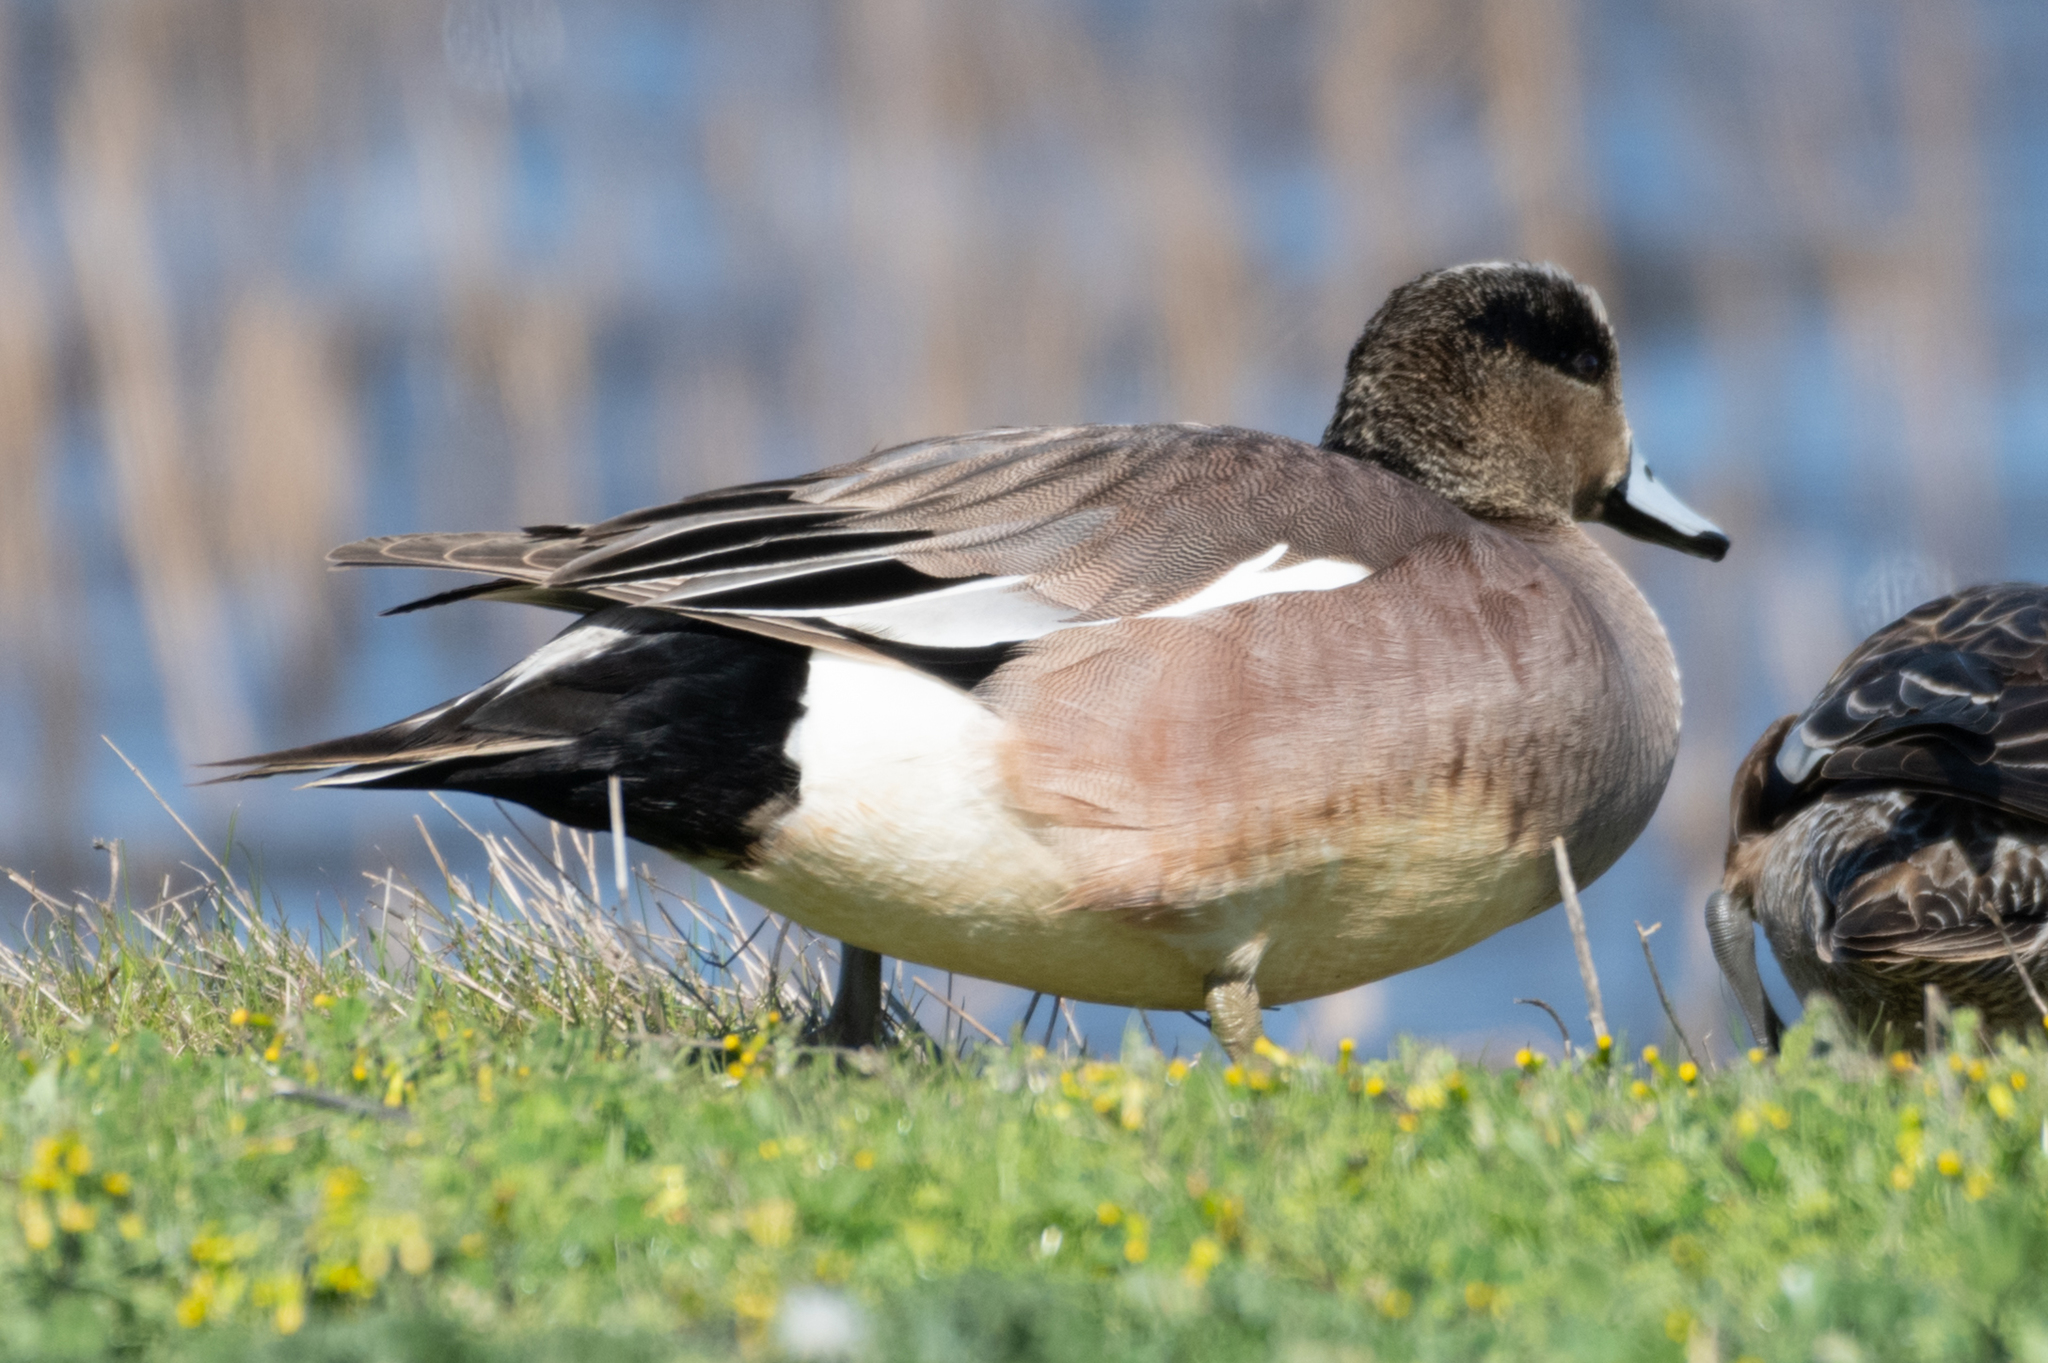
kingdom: Animalia
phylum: Chordata
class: Aves
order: Anseriformes
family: Anatidae
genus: Mareca
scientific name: Mareca americana
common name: American wigeon
